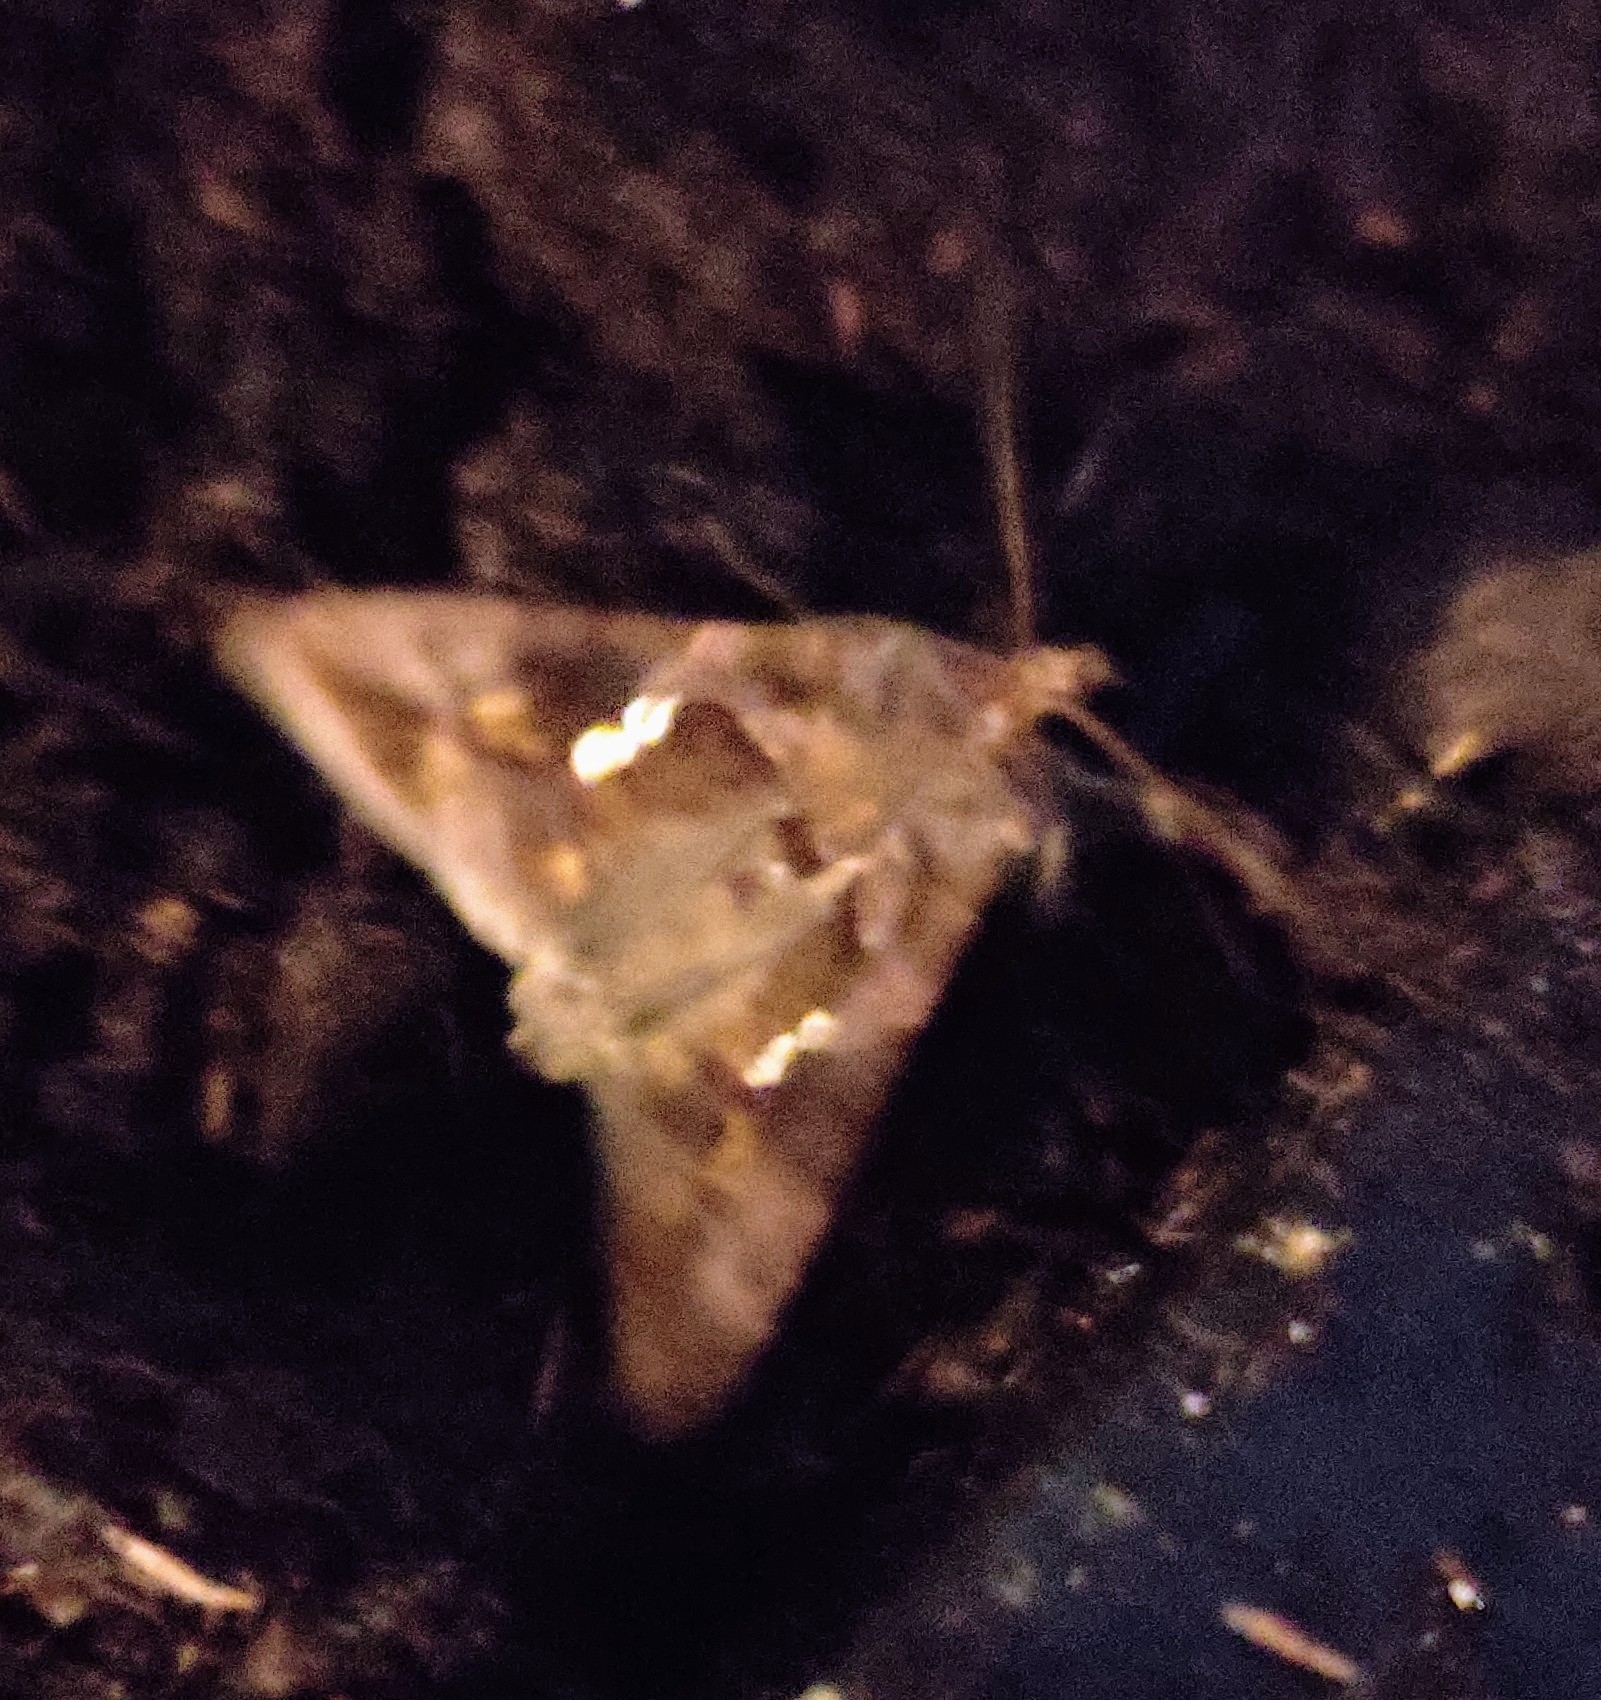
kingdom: Animalia
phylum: Arthropoda
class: Insecta
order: Lepidoptera
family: Noctuidae
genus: Chrysodeixis
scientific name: Chrysodeixis chalcites
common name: Golden twin-spot
